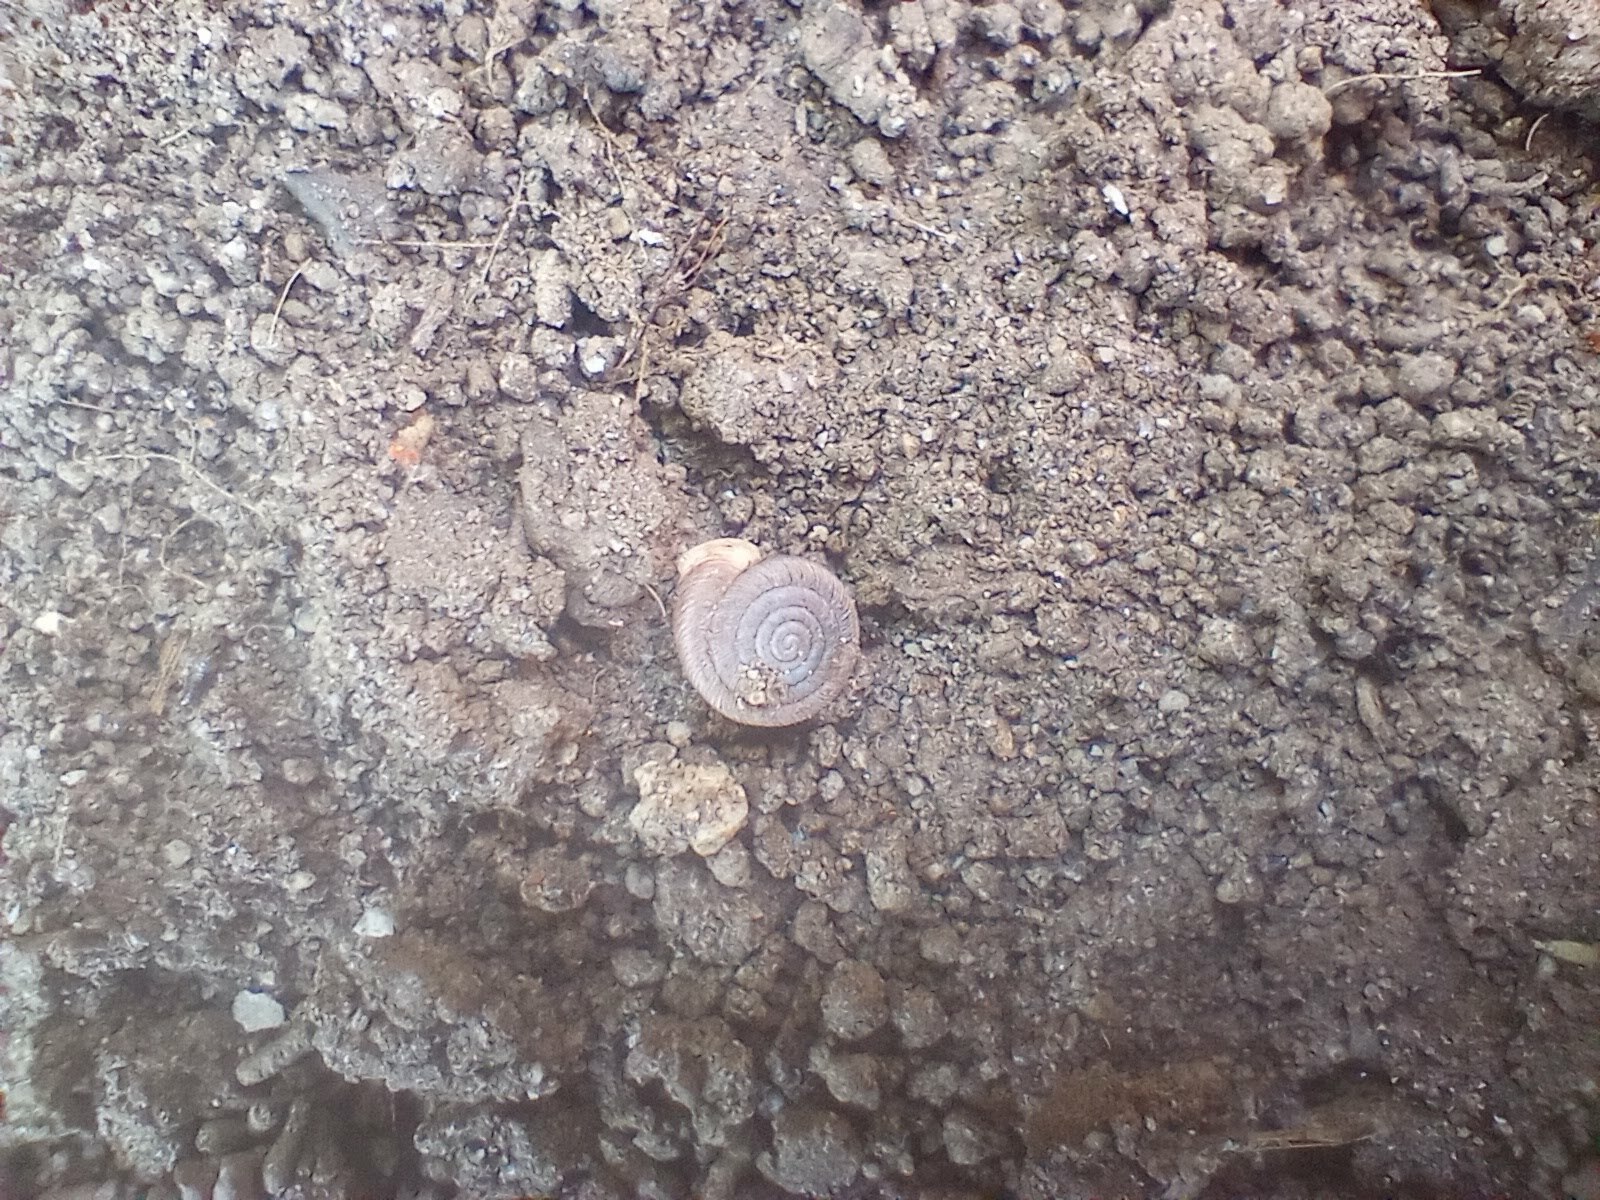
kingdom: Animalia
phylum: Mollusca
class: Gastropoda
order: Stylommatophora
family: Polygyridae
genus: Polygyra
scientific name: Polygyra cereolus
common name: Southern flatcone snail
